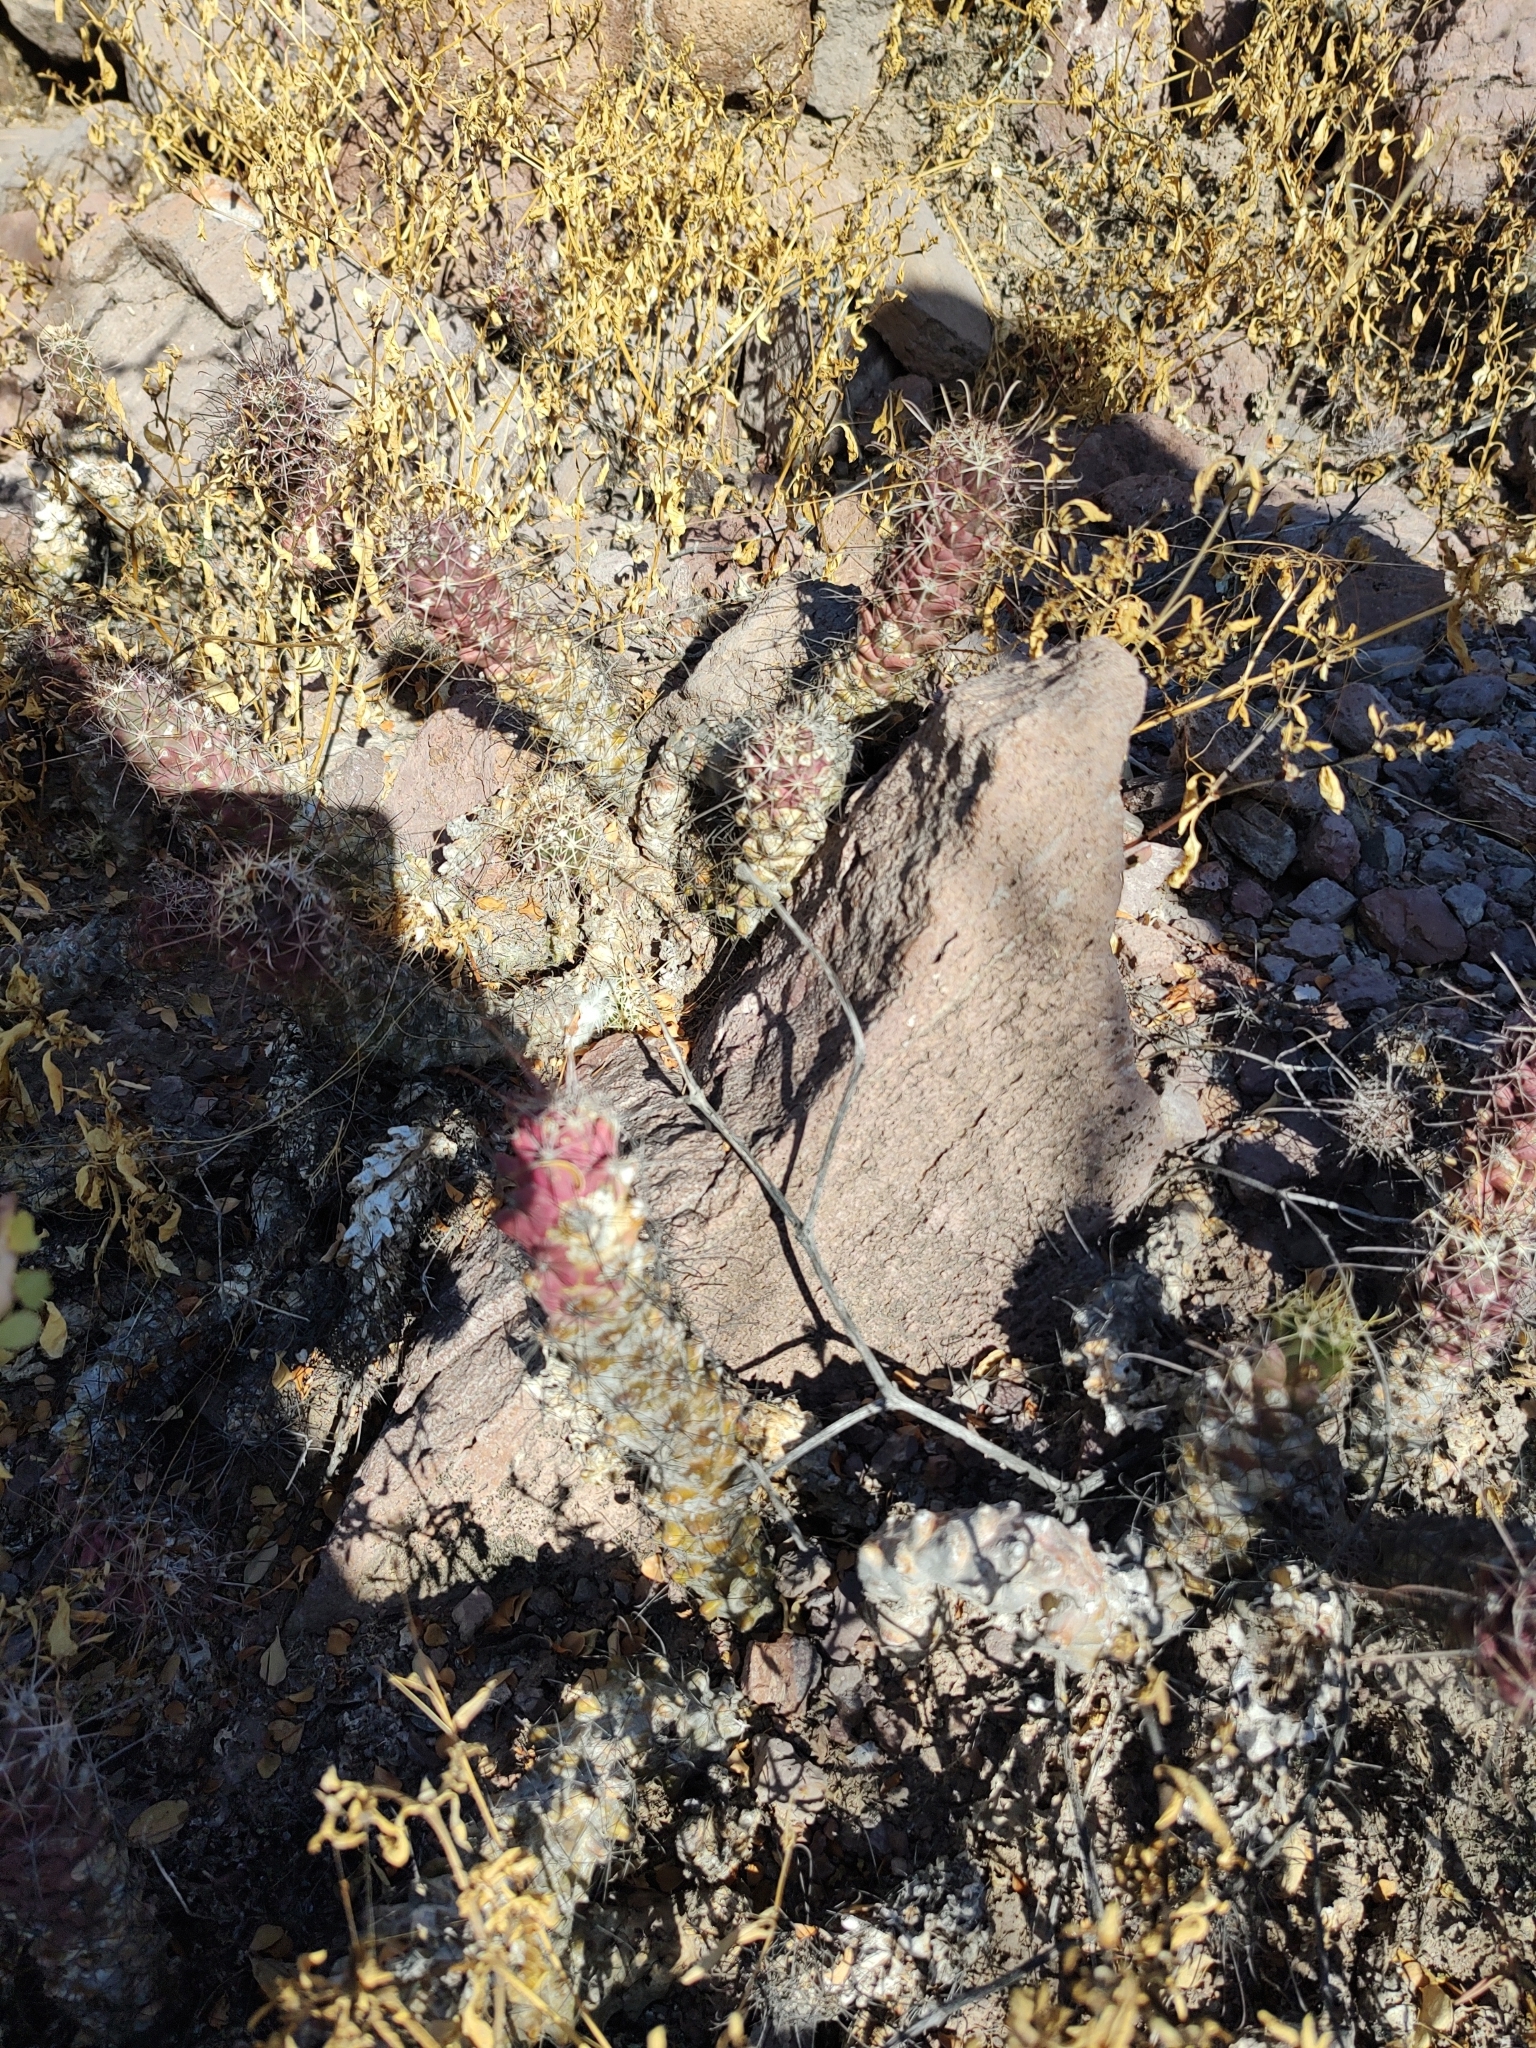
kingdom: Plantae
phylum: Tracheophyta
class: Magnoliopsida
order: Caryophyllales
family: Cactaceae
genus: Cochemiea
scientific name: Cochemiea poselgeri
